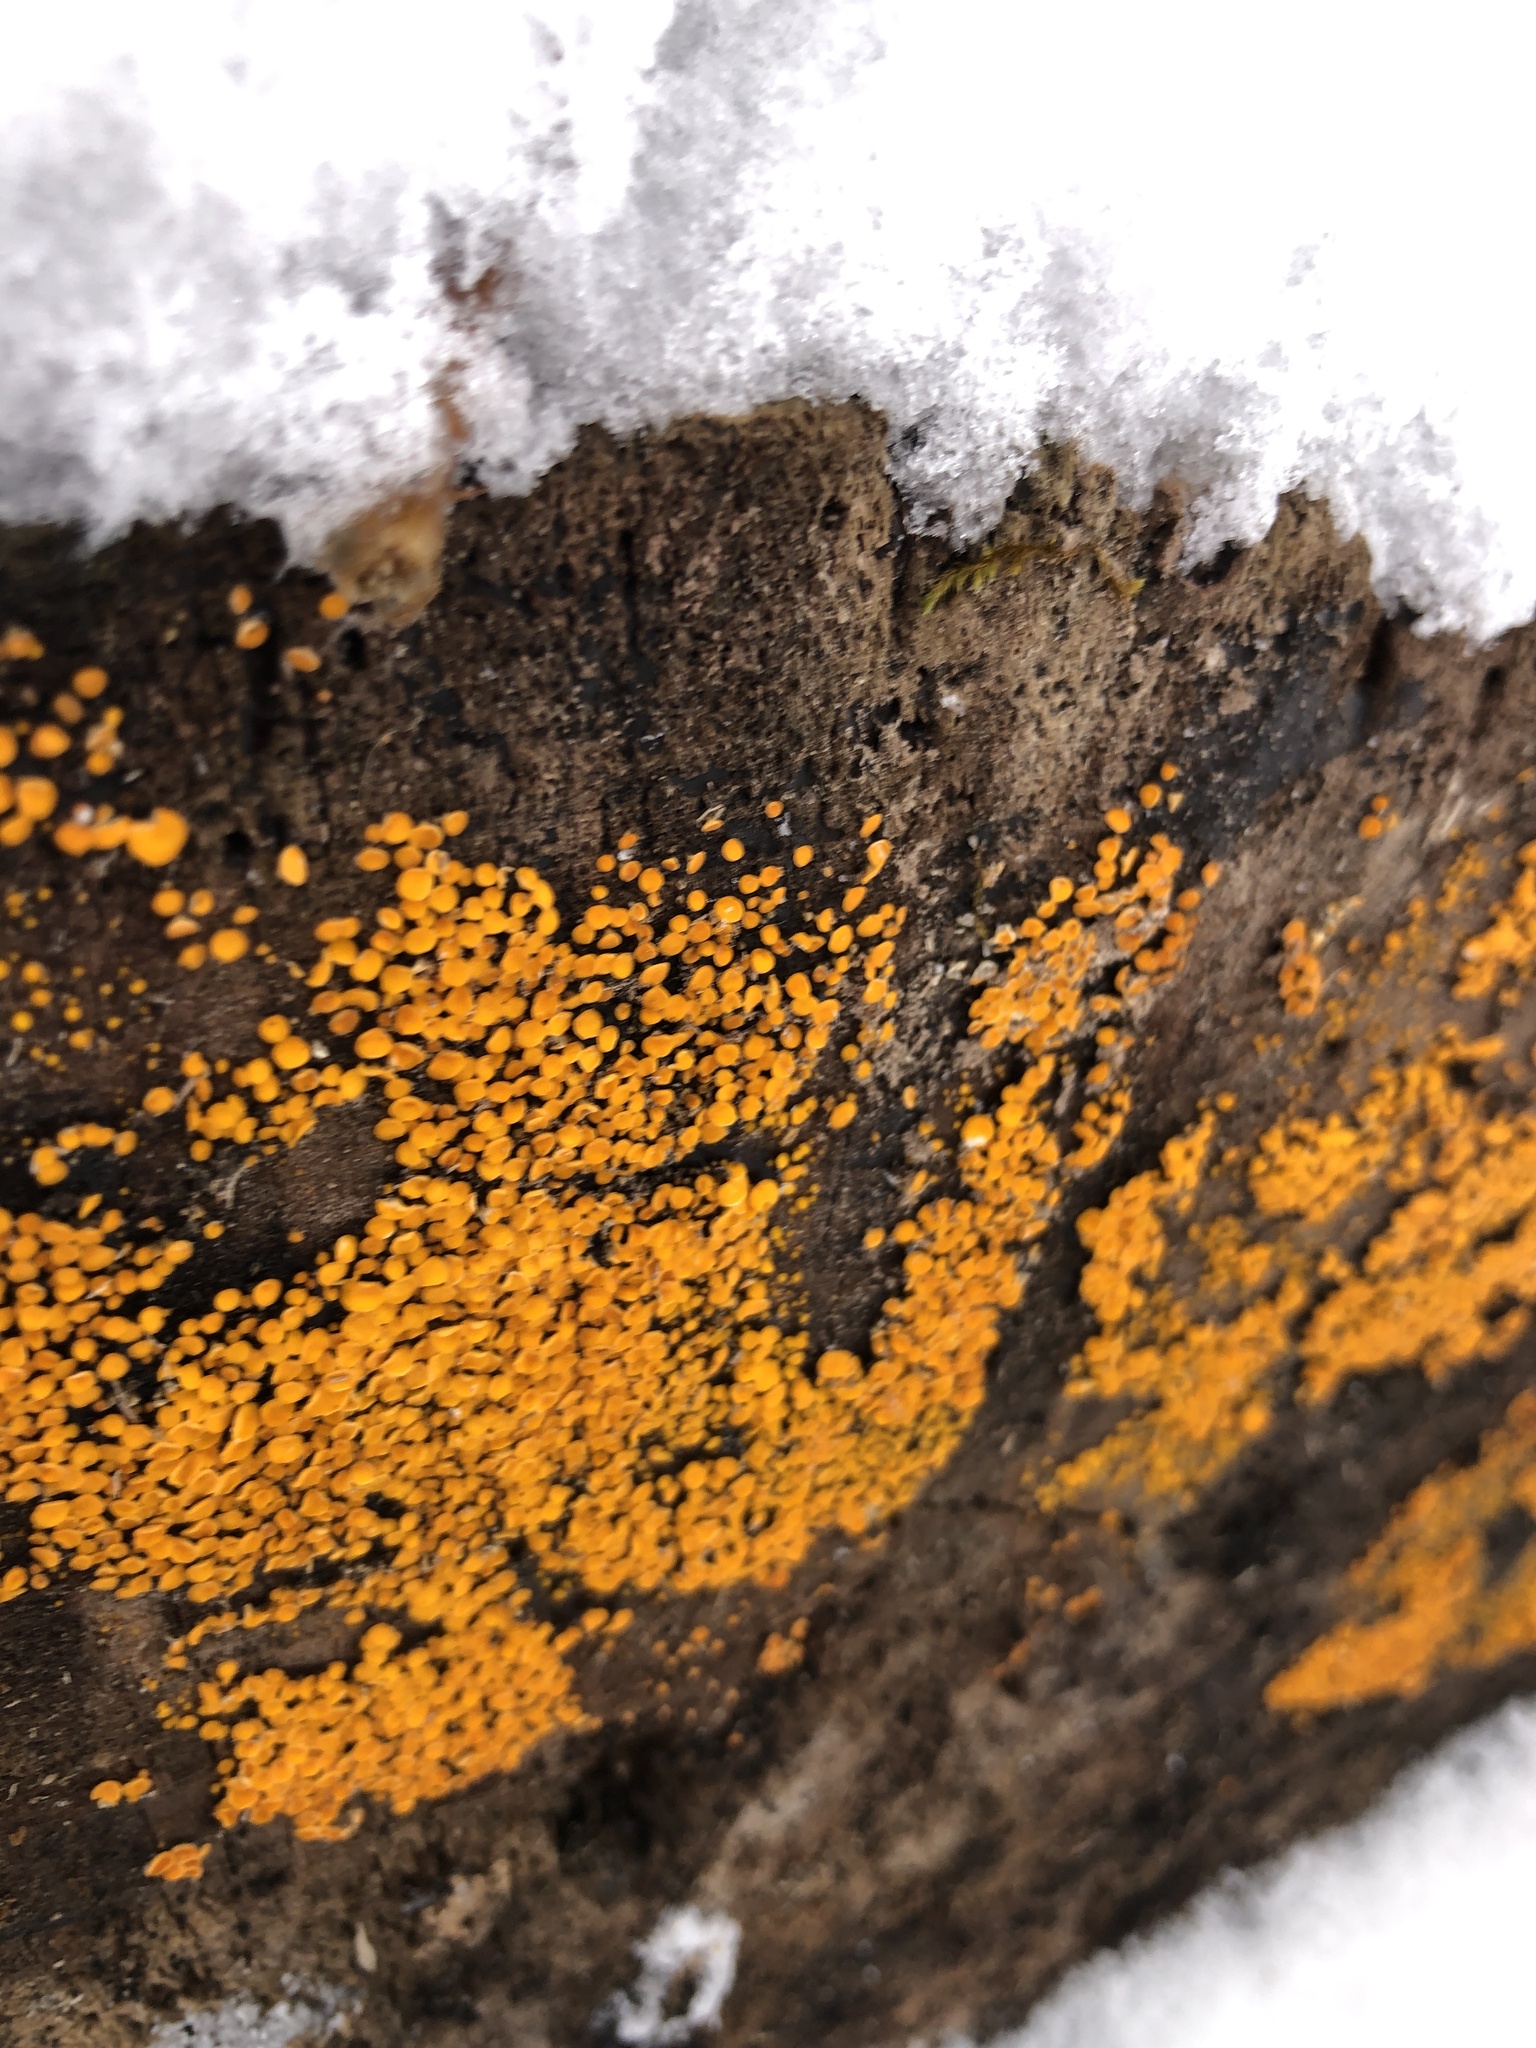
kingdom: Fungi
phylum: Ascomycota
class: Leotiomycetes
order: Helotiales
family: Pezizellaceae
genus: Calycina
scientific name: Calycina citrina
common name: Yellow fairy cups
